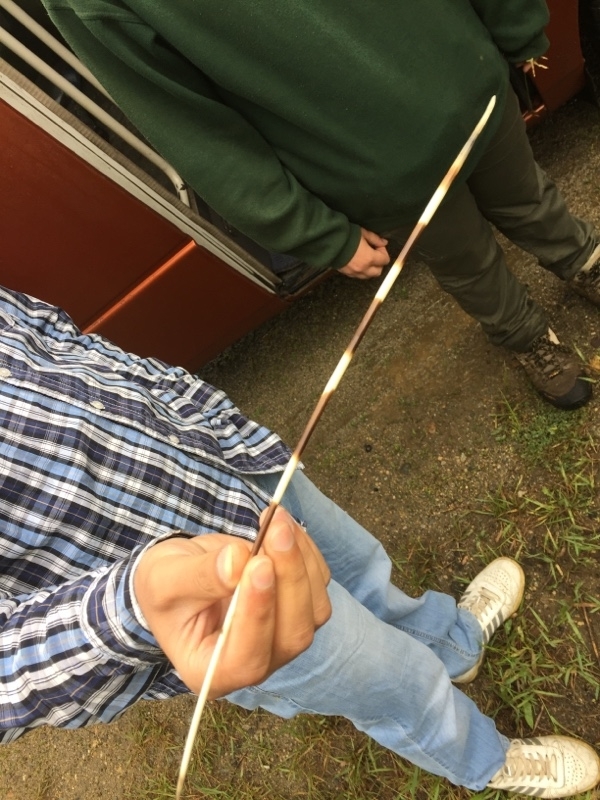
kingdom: Animalia
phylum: Chordata
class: Mammalia
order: Rodentia
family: Hystricidae
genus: Hystrix
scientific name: Hystrix indica
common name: Indian crested porcupine
